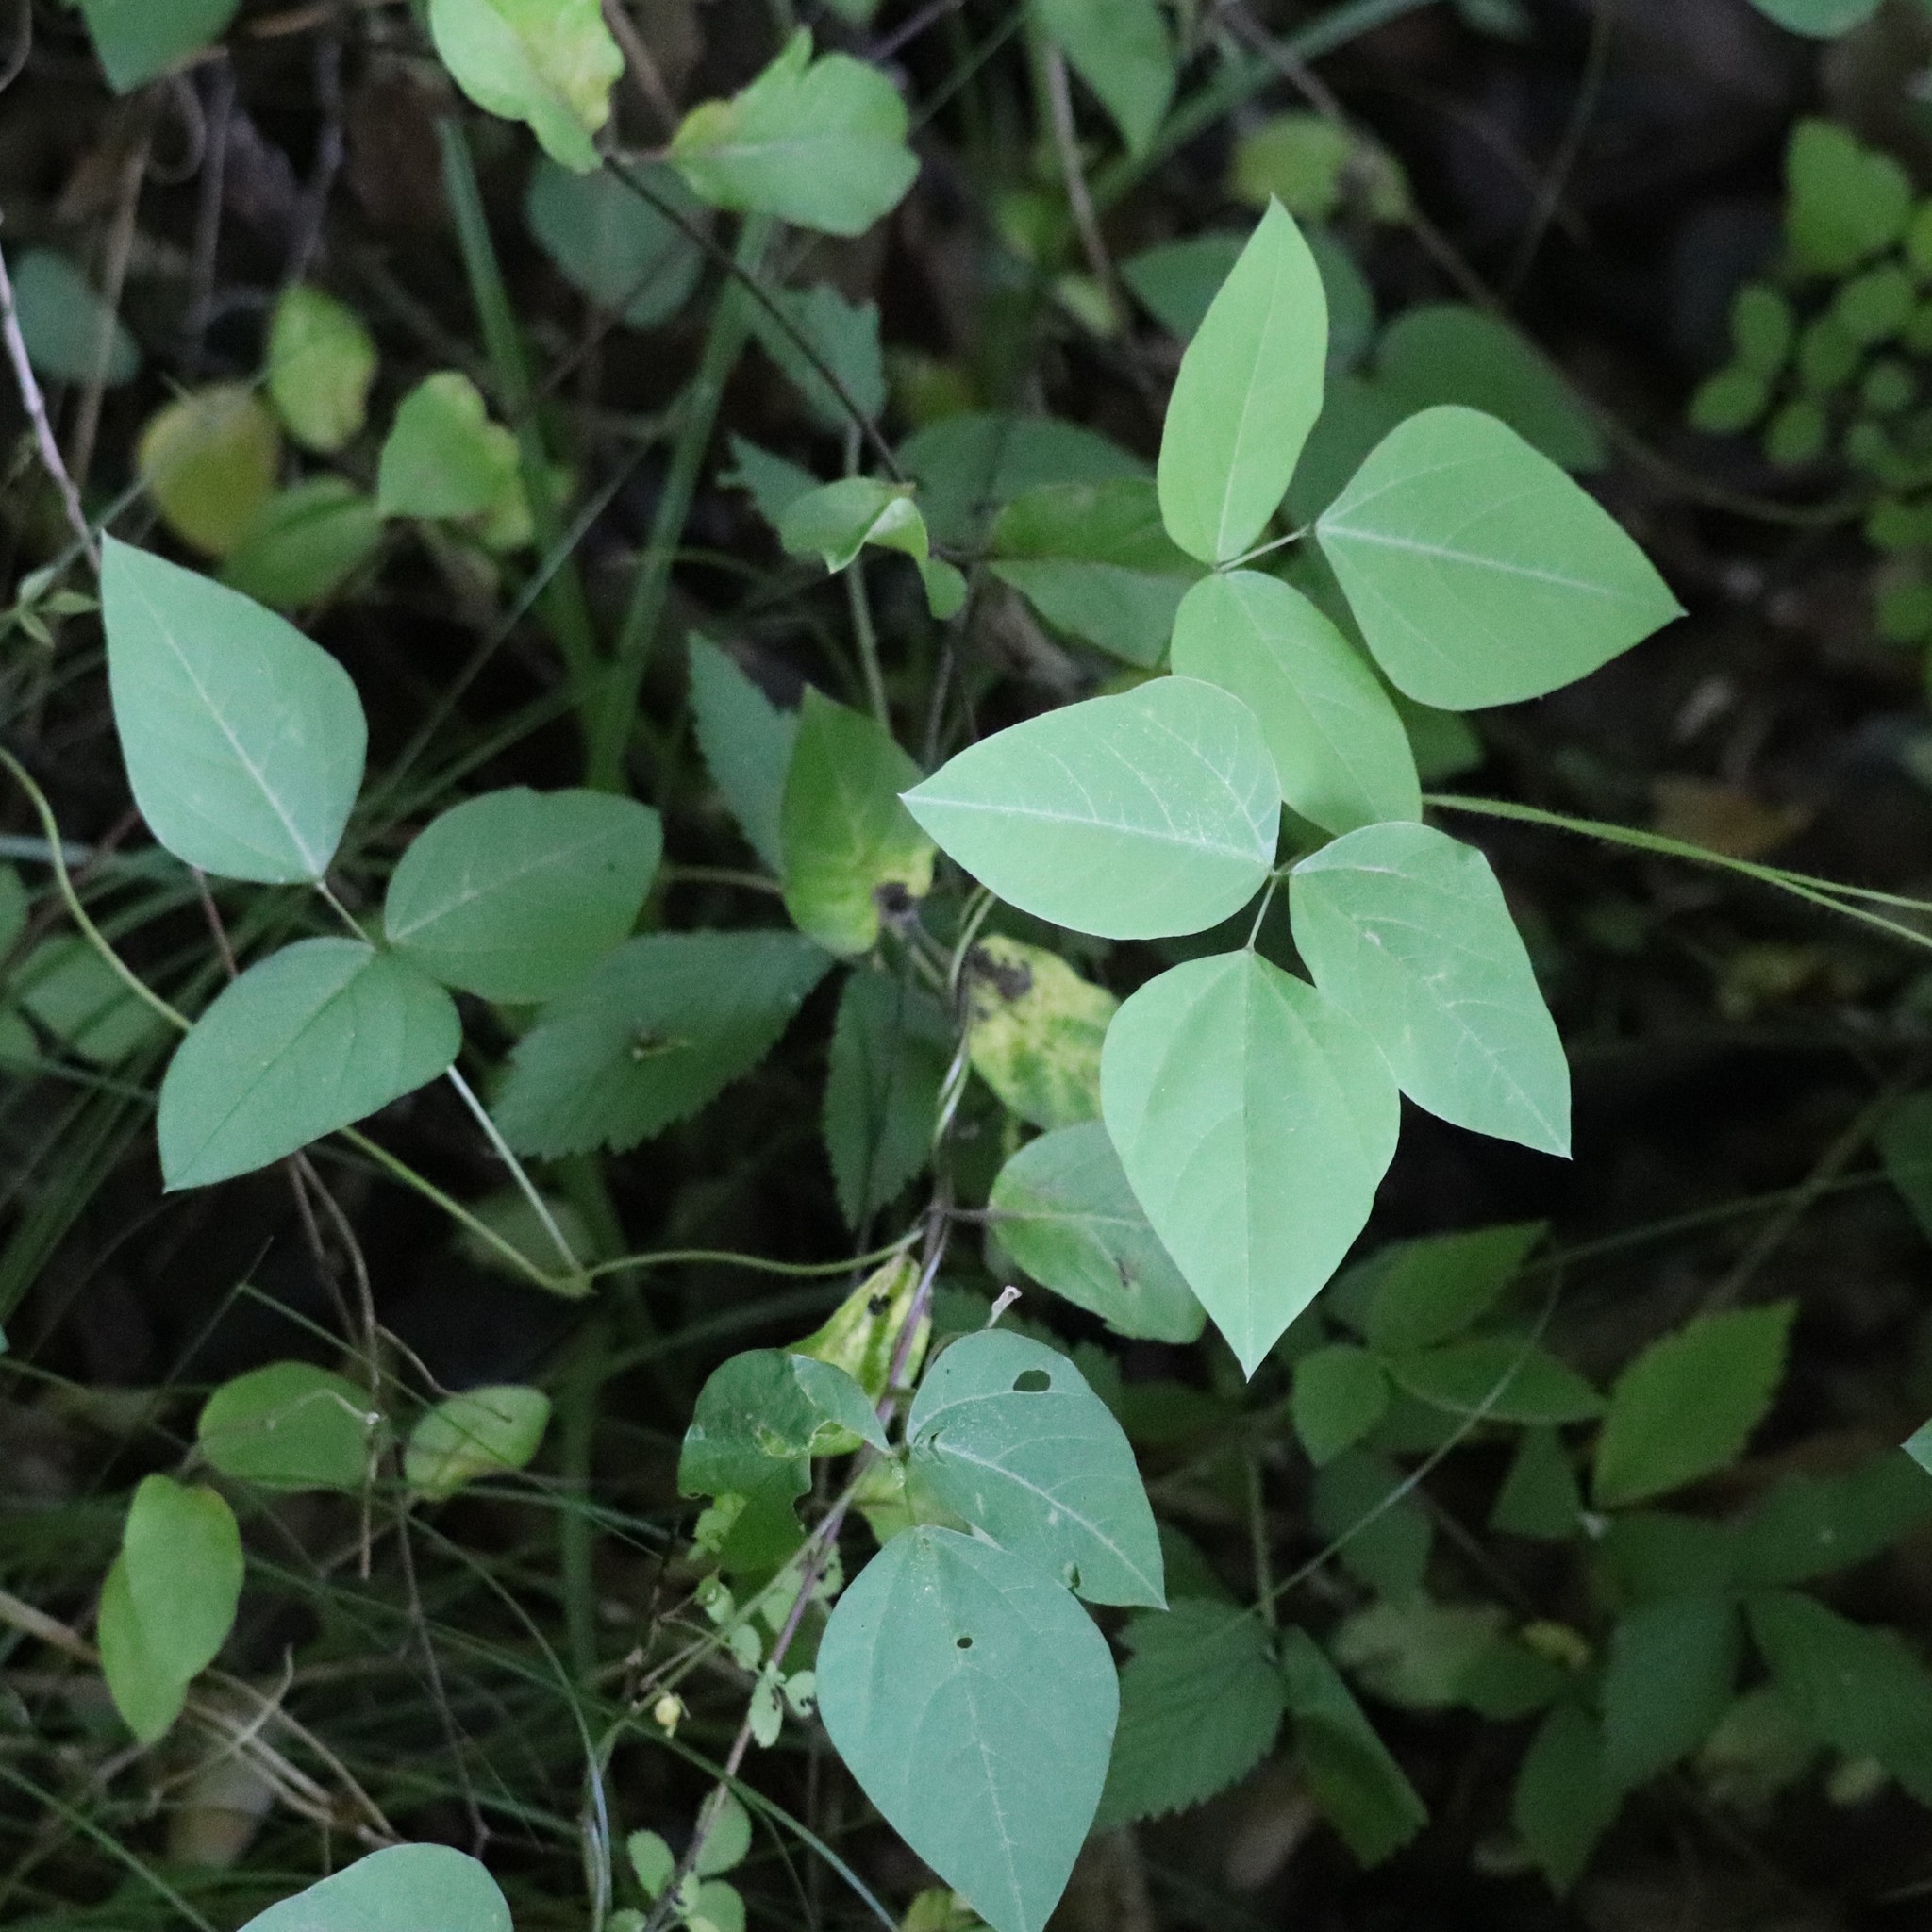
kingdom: Plantae
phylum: Tracheophyta
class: Magnoliopsida
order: Fabales
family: Fabaceae
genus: Amphicarpaea
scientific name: Amphicarpaea bracteata
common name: American hog peanut
